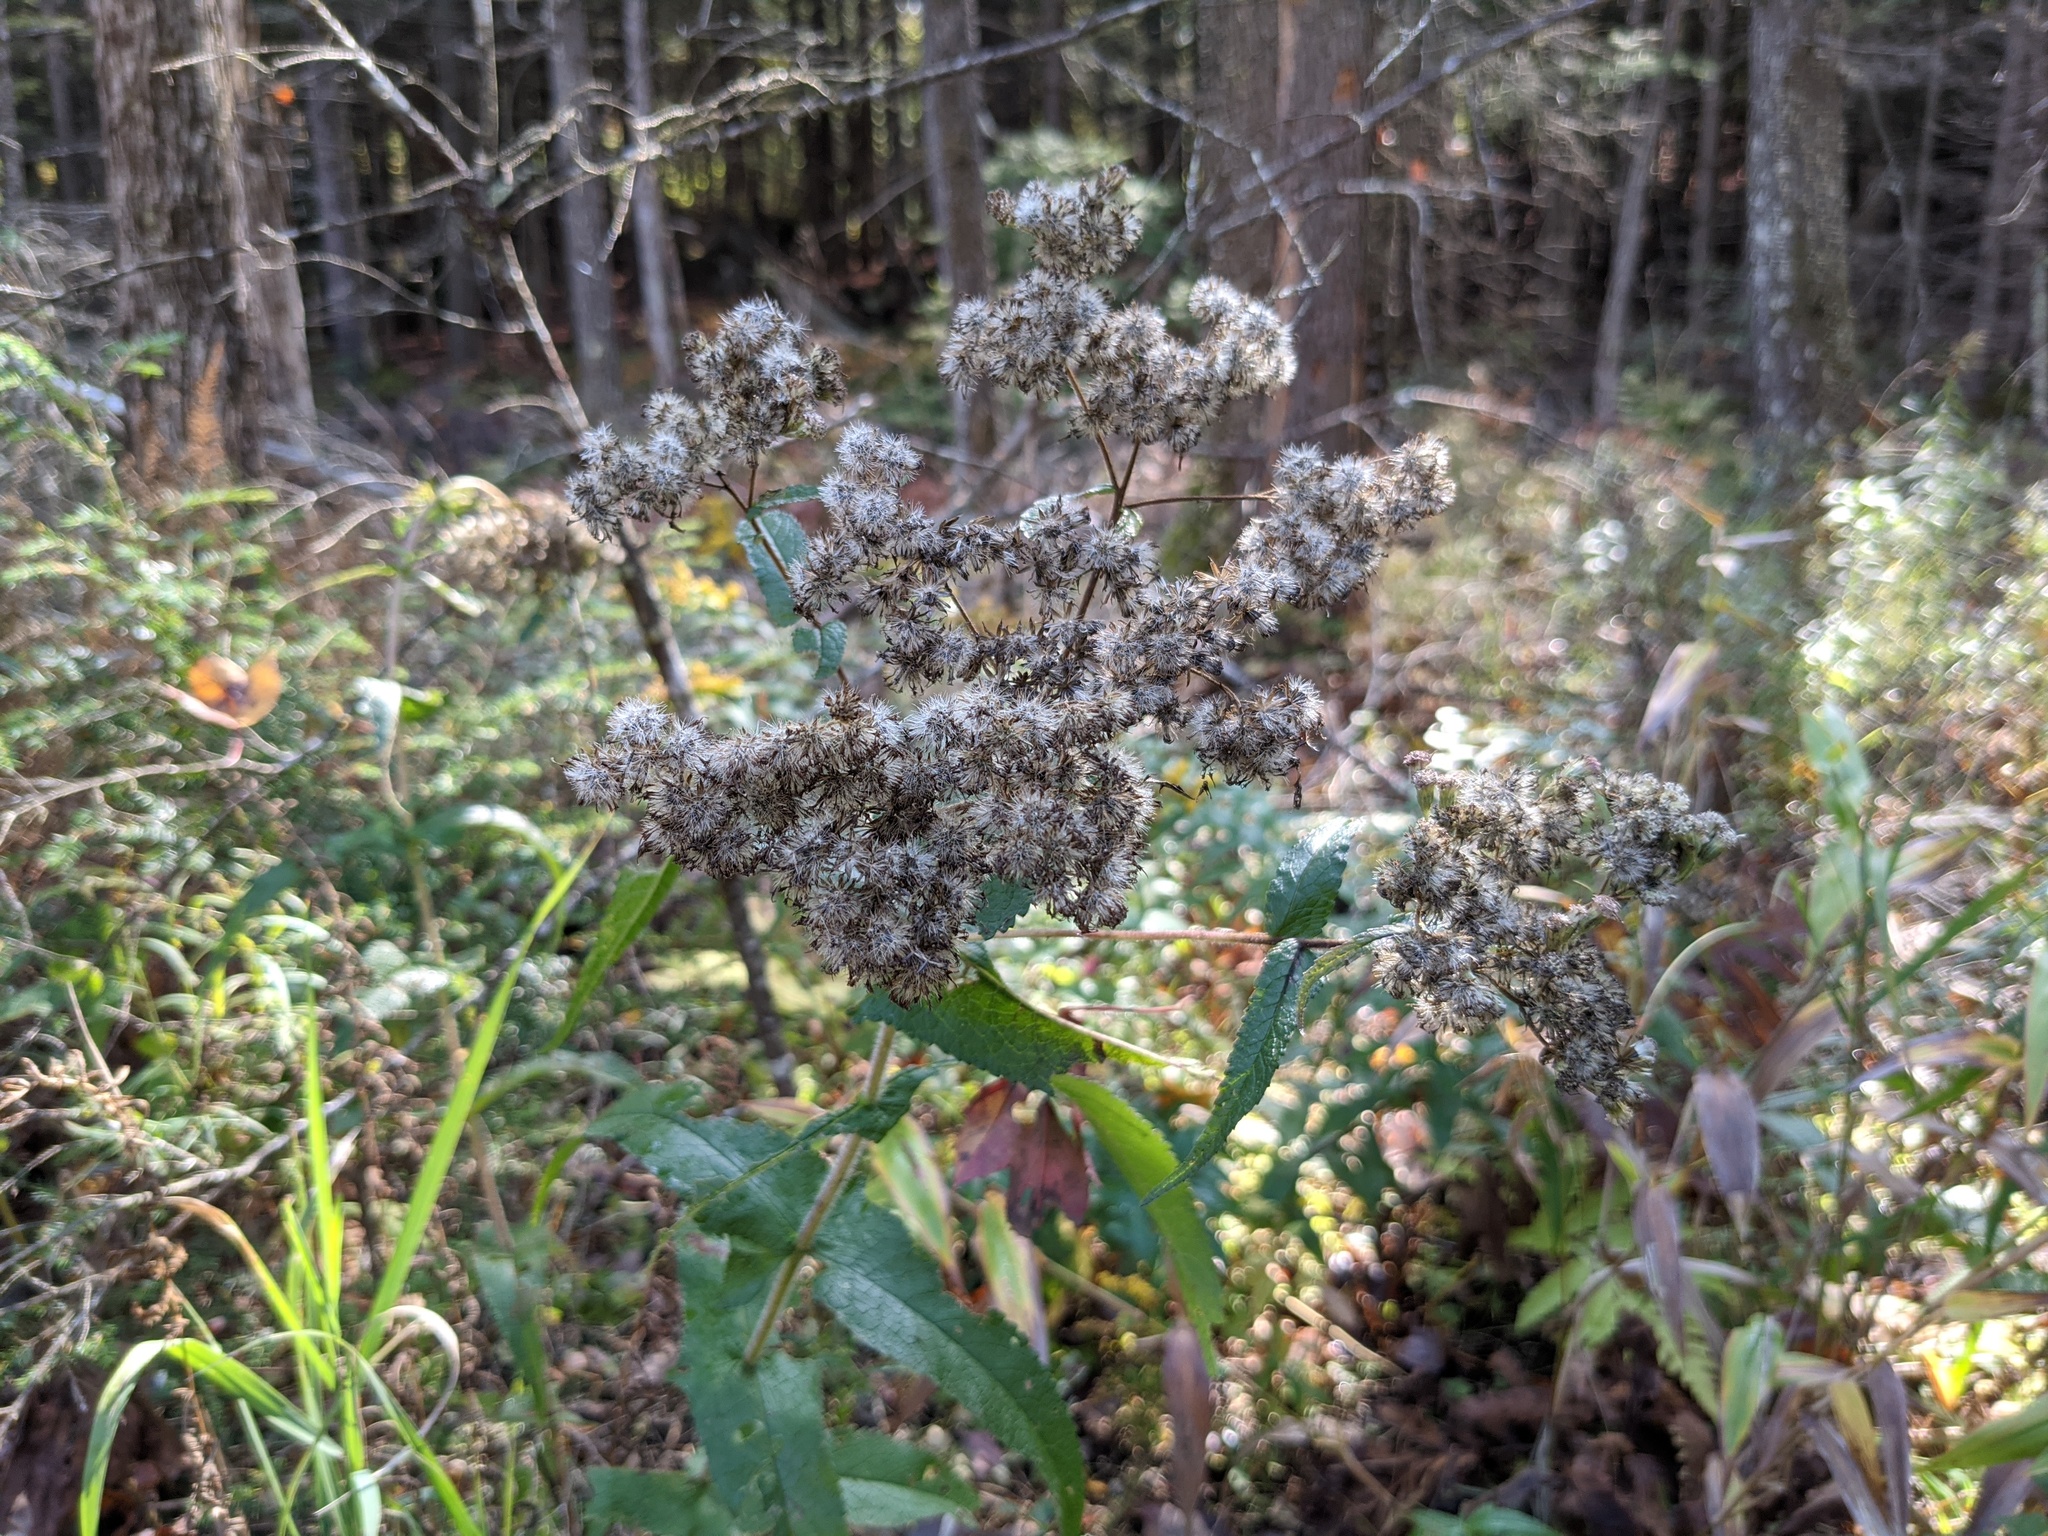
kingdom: Plantae
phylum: Tracheophyta
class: Magnoliopsida
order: Asterales
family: Asteraceae
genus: Eupatorium
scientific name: Eupatorium perfoliatum
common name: Boneset
